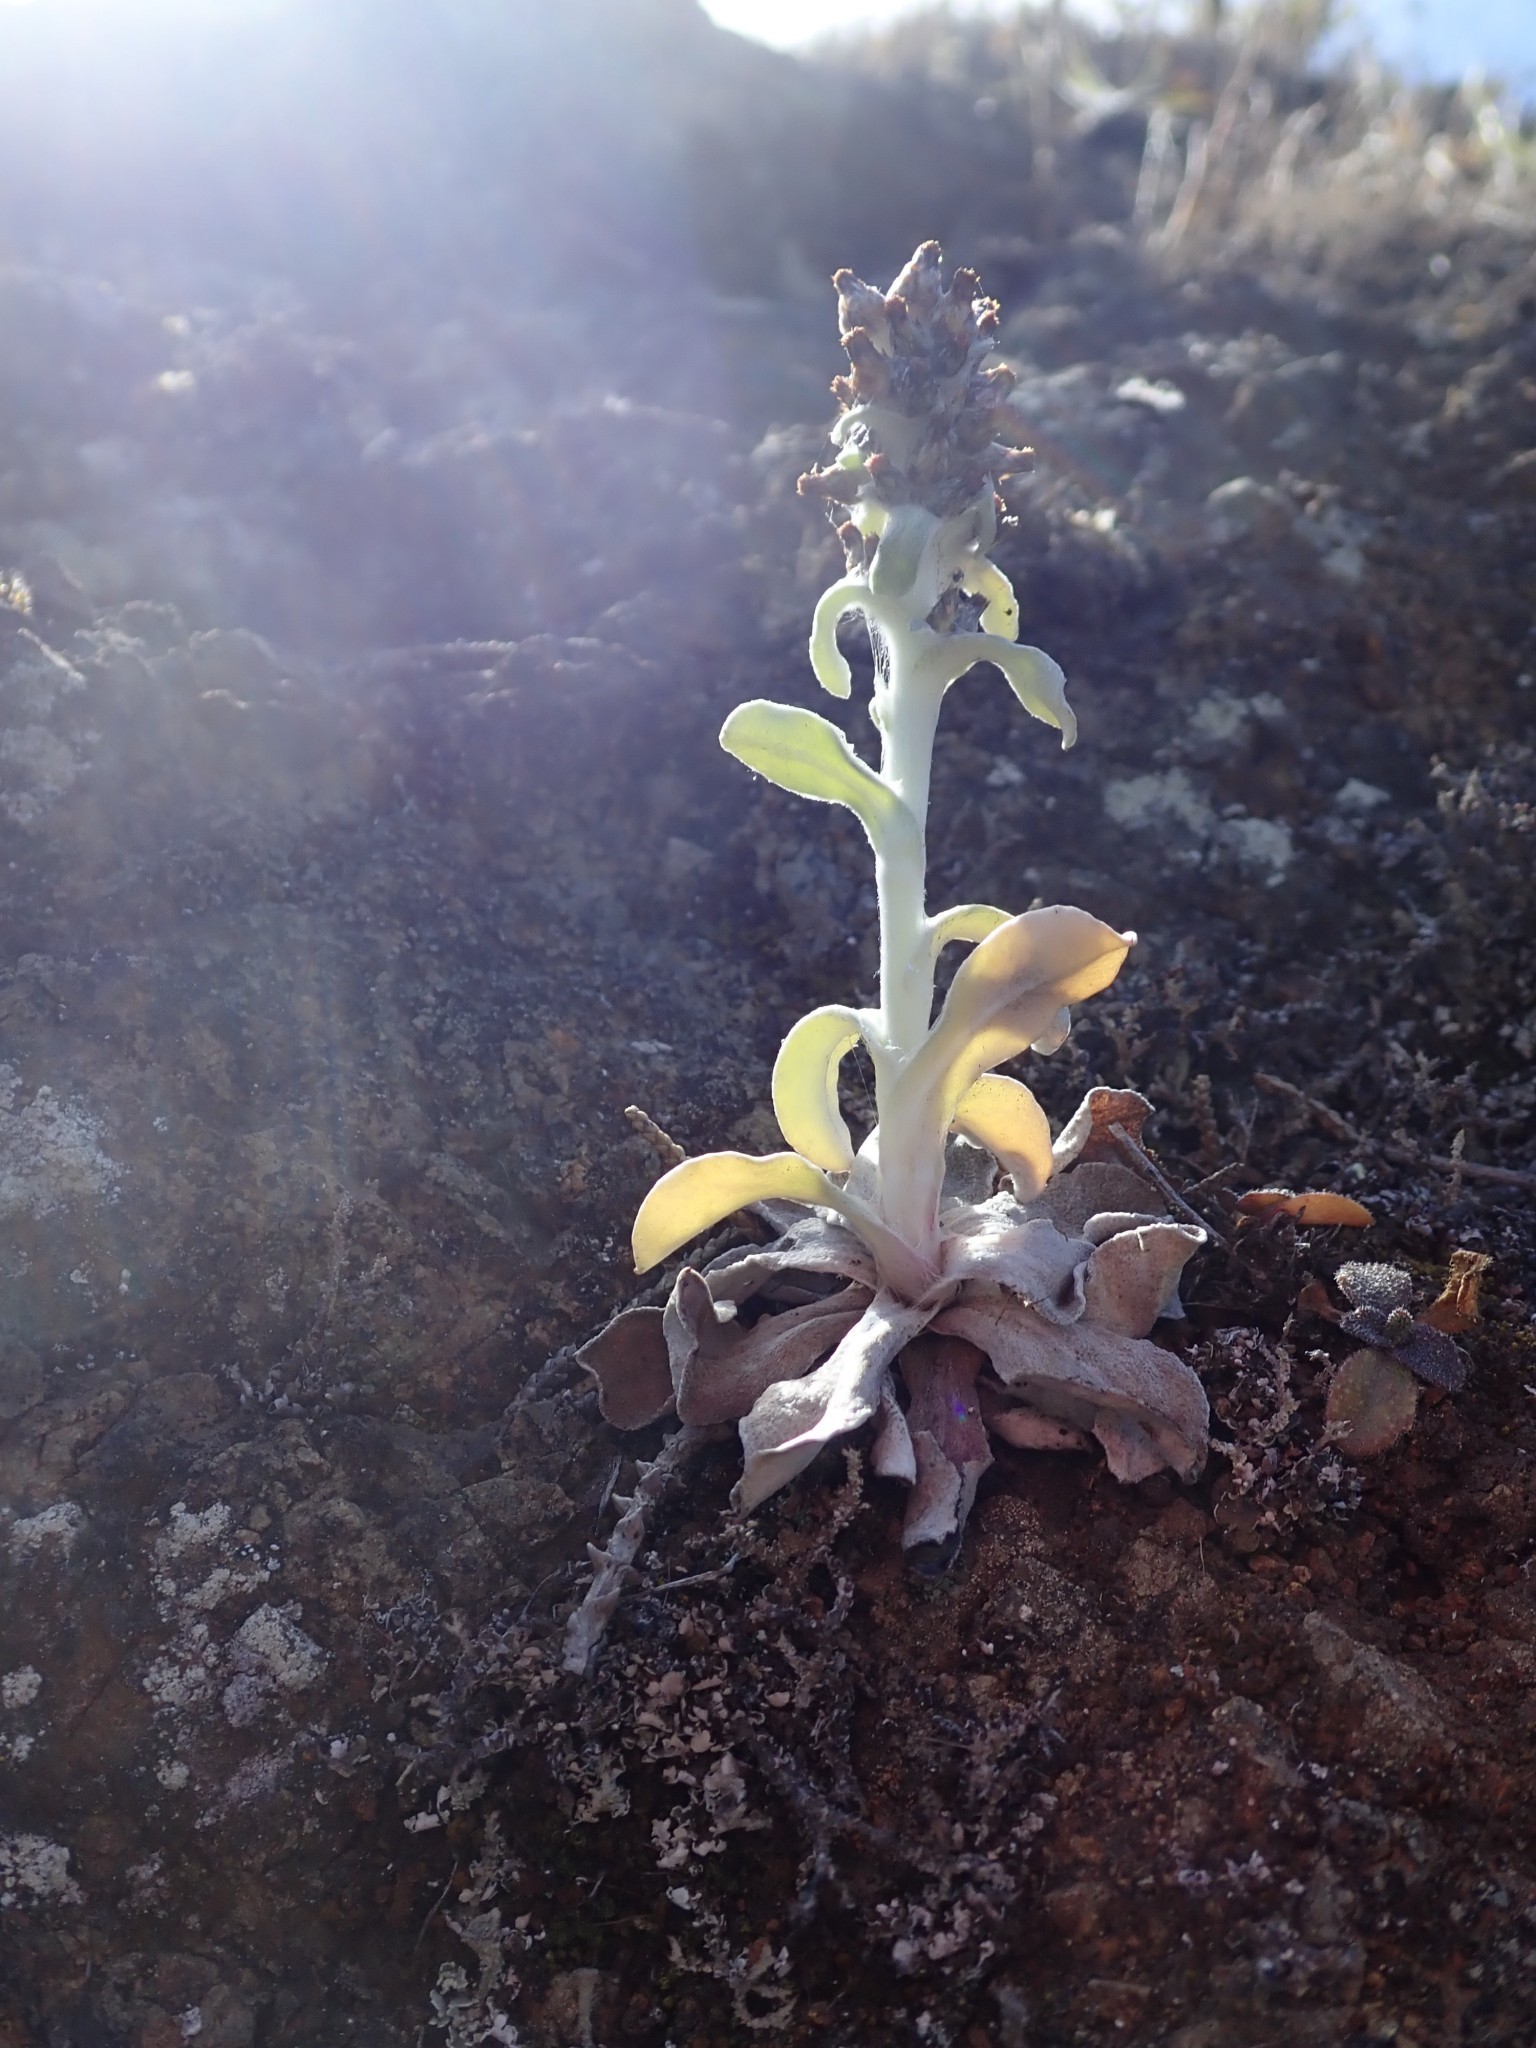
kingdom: Plantae
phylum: Tracheophyta
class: Magnoliopsida
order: Asterales
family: Asteraceae
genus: Gamochaeta
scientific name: Gamochaeta ustulata
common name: Pacific cudweed
